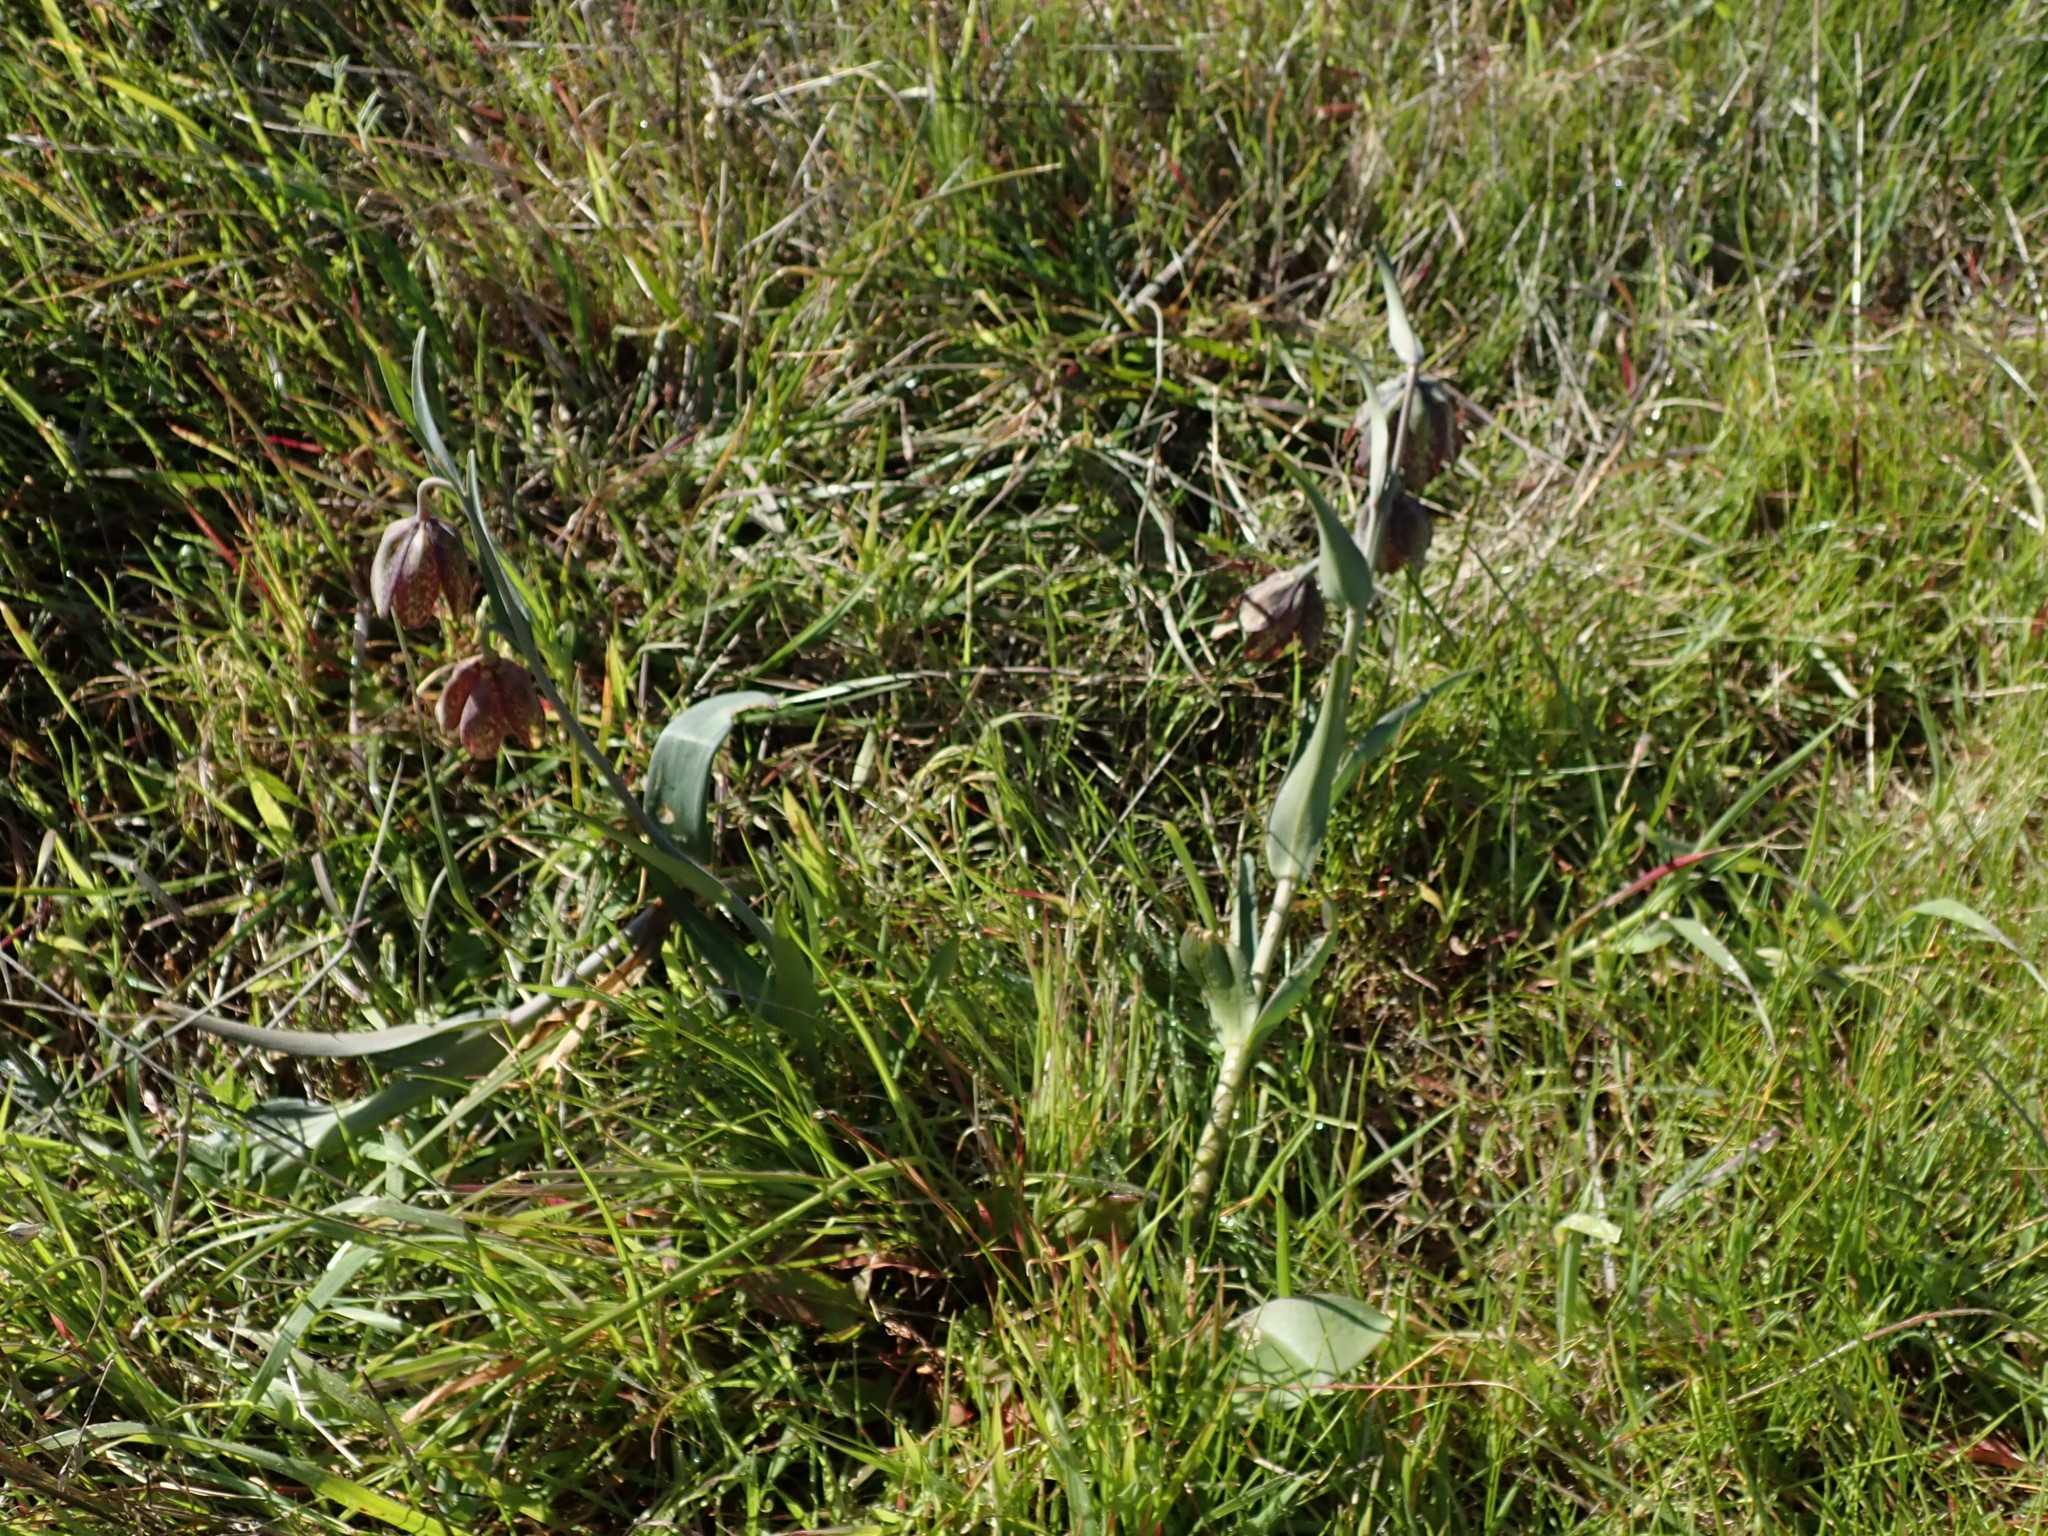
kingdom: Plantae
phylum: Tracheophyta
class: Liliopsida
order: Liliales
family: Liliaceae
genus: Fritillaria
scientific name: Fritillaria affinis
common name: Ojai fritillary
